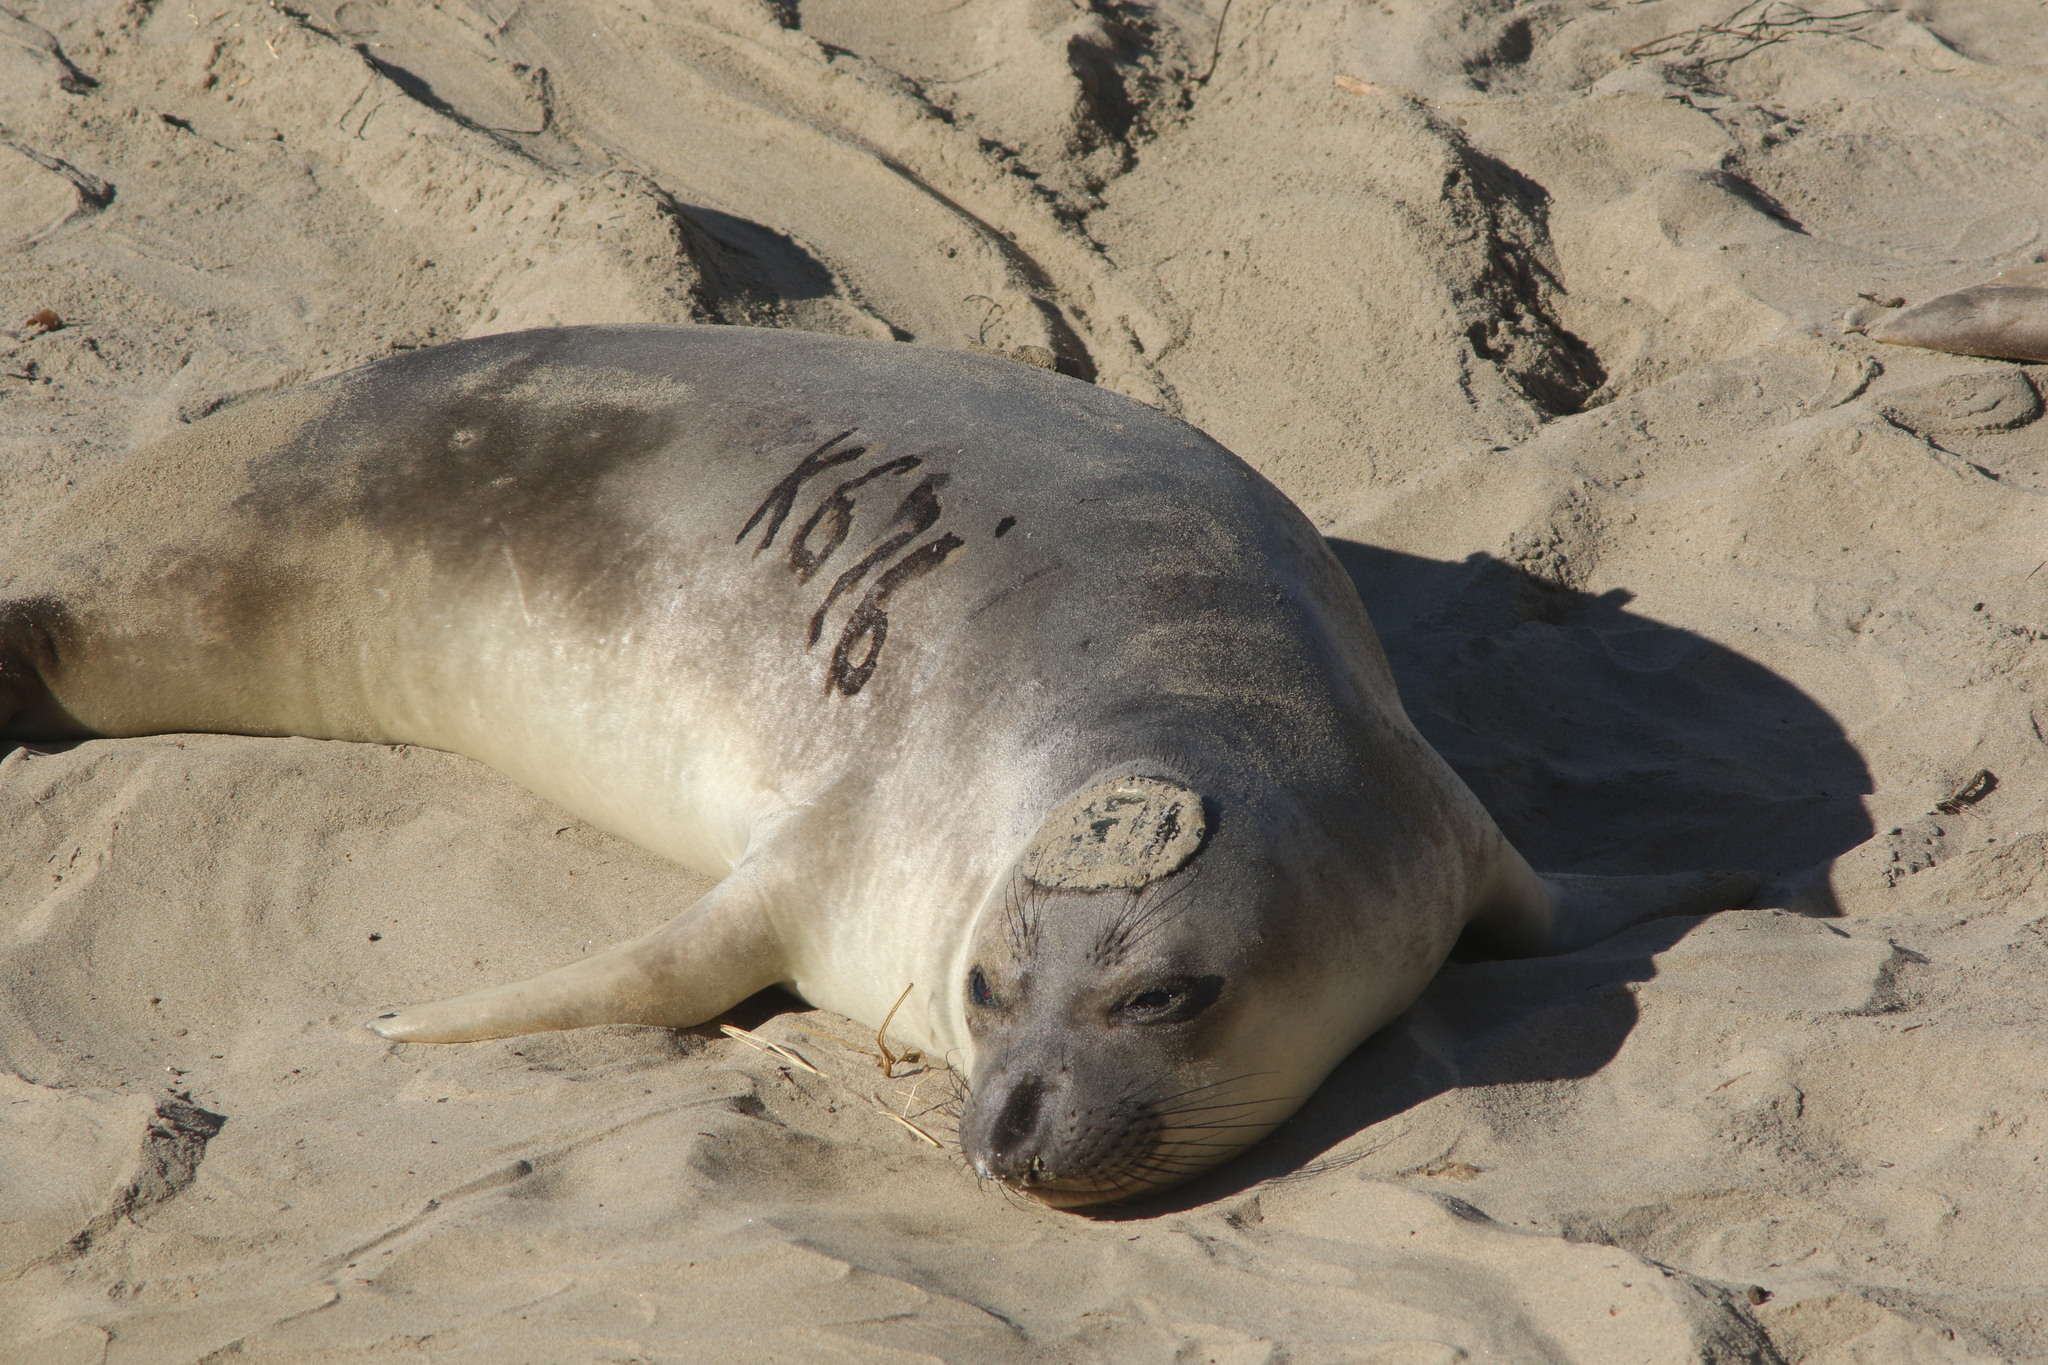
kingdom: Animalia
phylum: Chordata
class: Mammalia
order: Carnivora
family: Phocidae
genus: Mirounga
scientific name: Mirounga angustirostris
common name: Northern elephant seal
